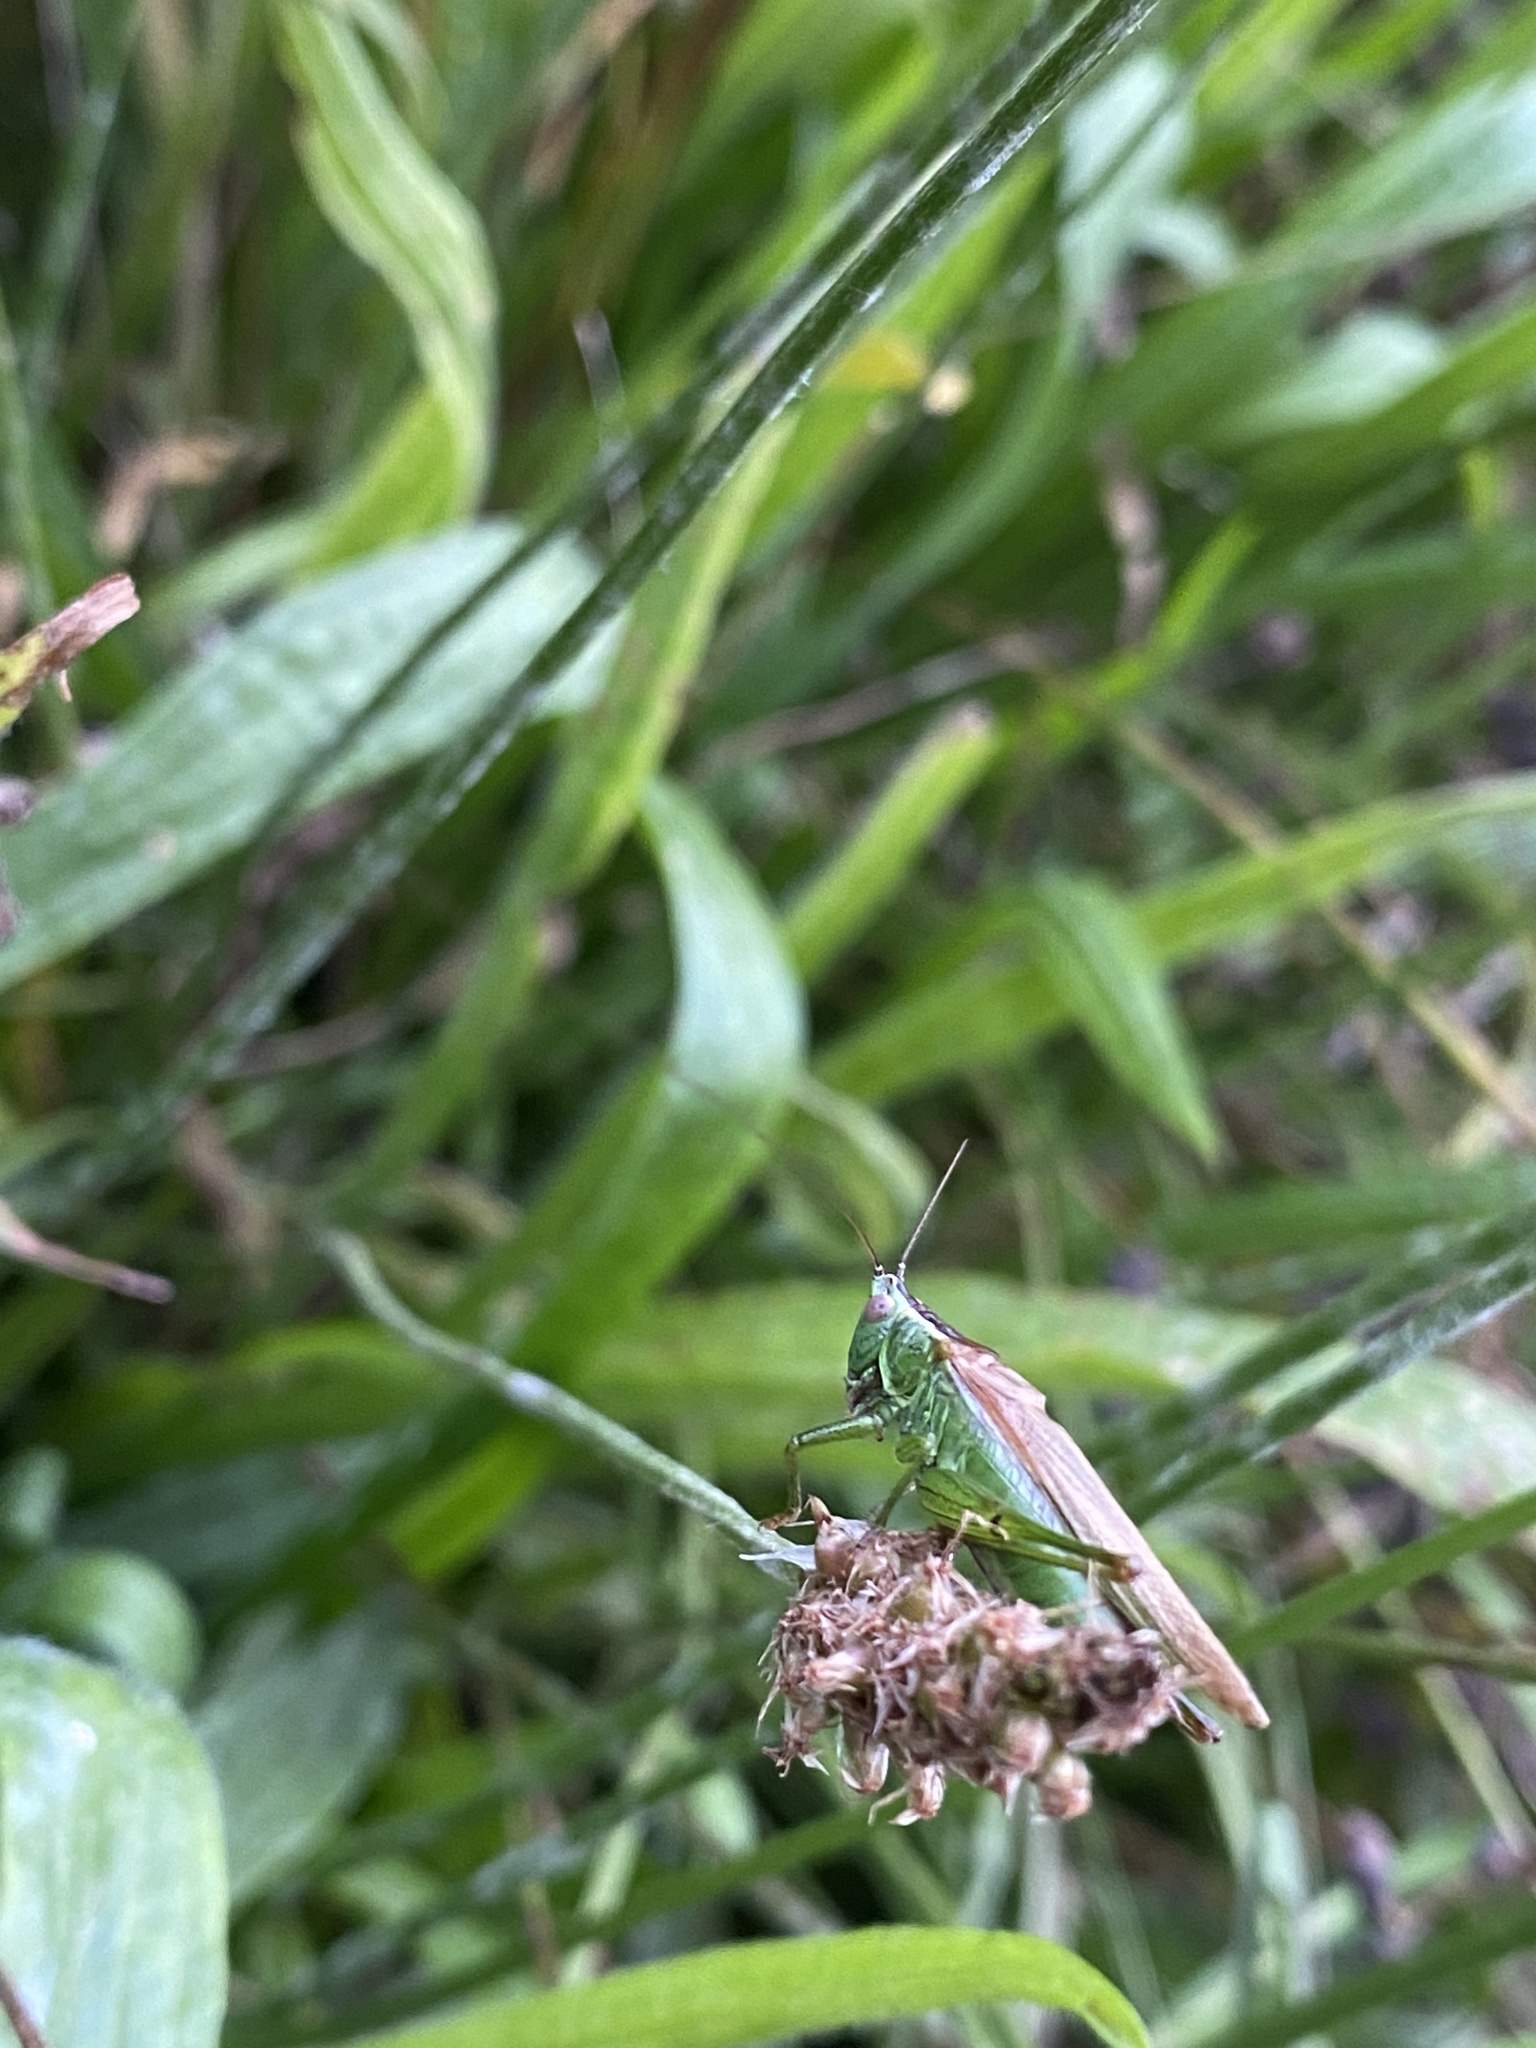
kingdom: Animalia
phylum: Arthropoda
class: Insecta
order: Orthoptera
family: Tettigoniidae
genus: Conocephalus
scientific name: Conocephalus fuscus
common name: Long-winged conehead
